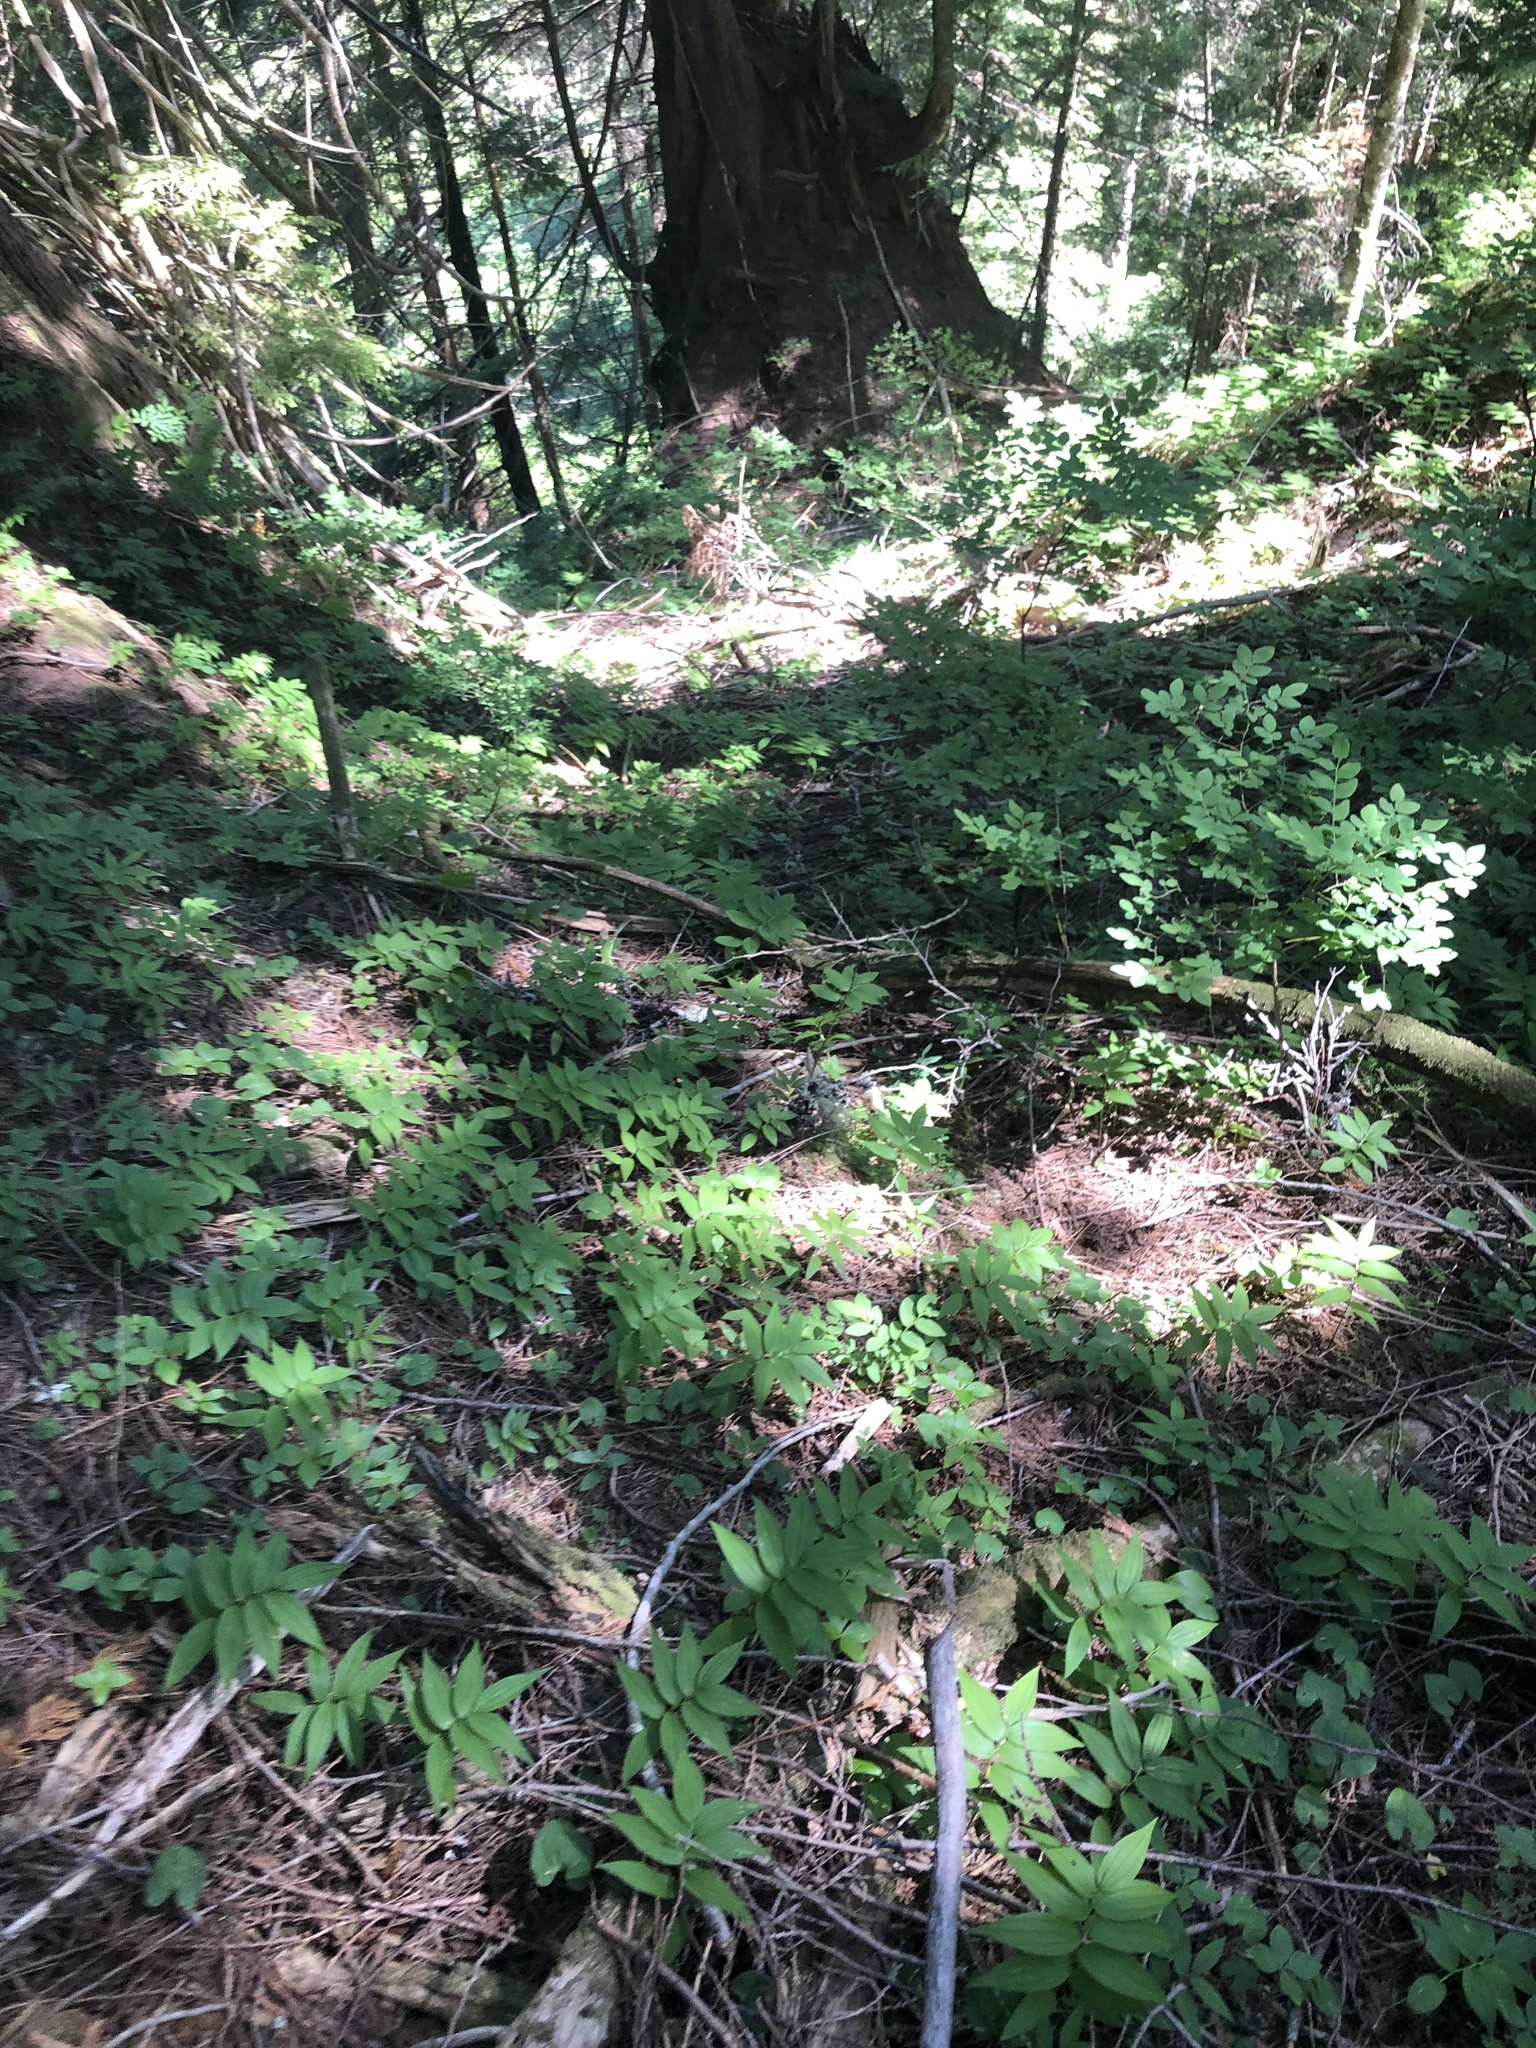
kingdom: Plantae
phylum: Tracheophyta
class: Liliopsida
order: Asparagales
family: Asparagaceae
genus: Maianthemum
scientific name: Maianthemum stellatum
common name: Little false solomon's seal
